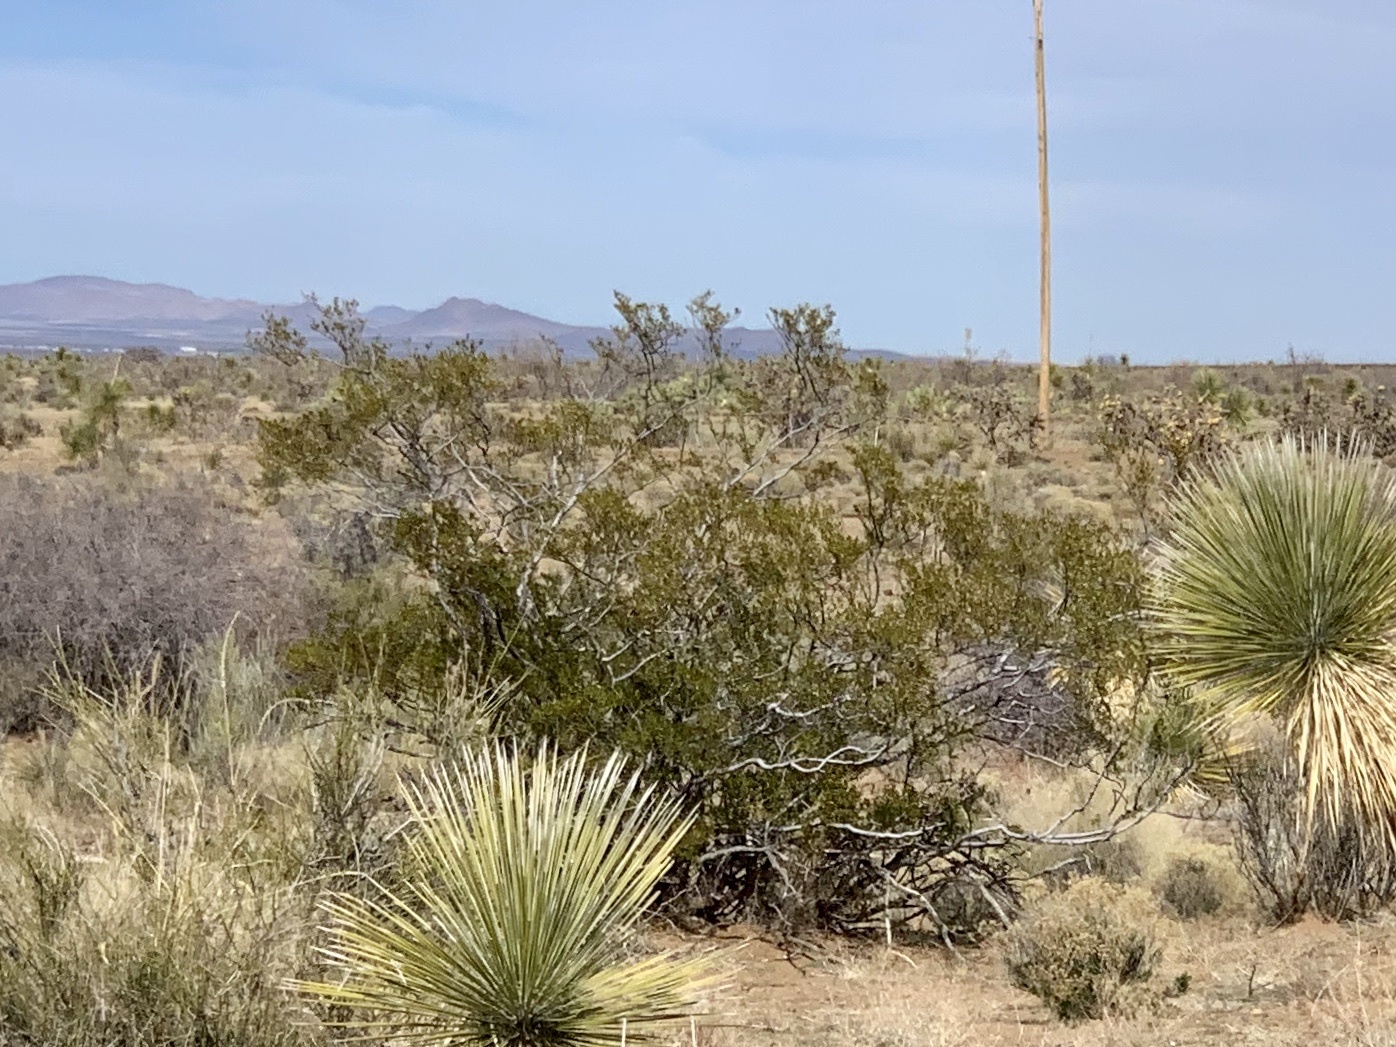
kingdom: Plantae
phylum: Tracheophyta
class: Magnoliopsida
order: Zygophyllales
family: Zygophyllaceae
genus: Larrea
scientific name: Larrea tridentata
